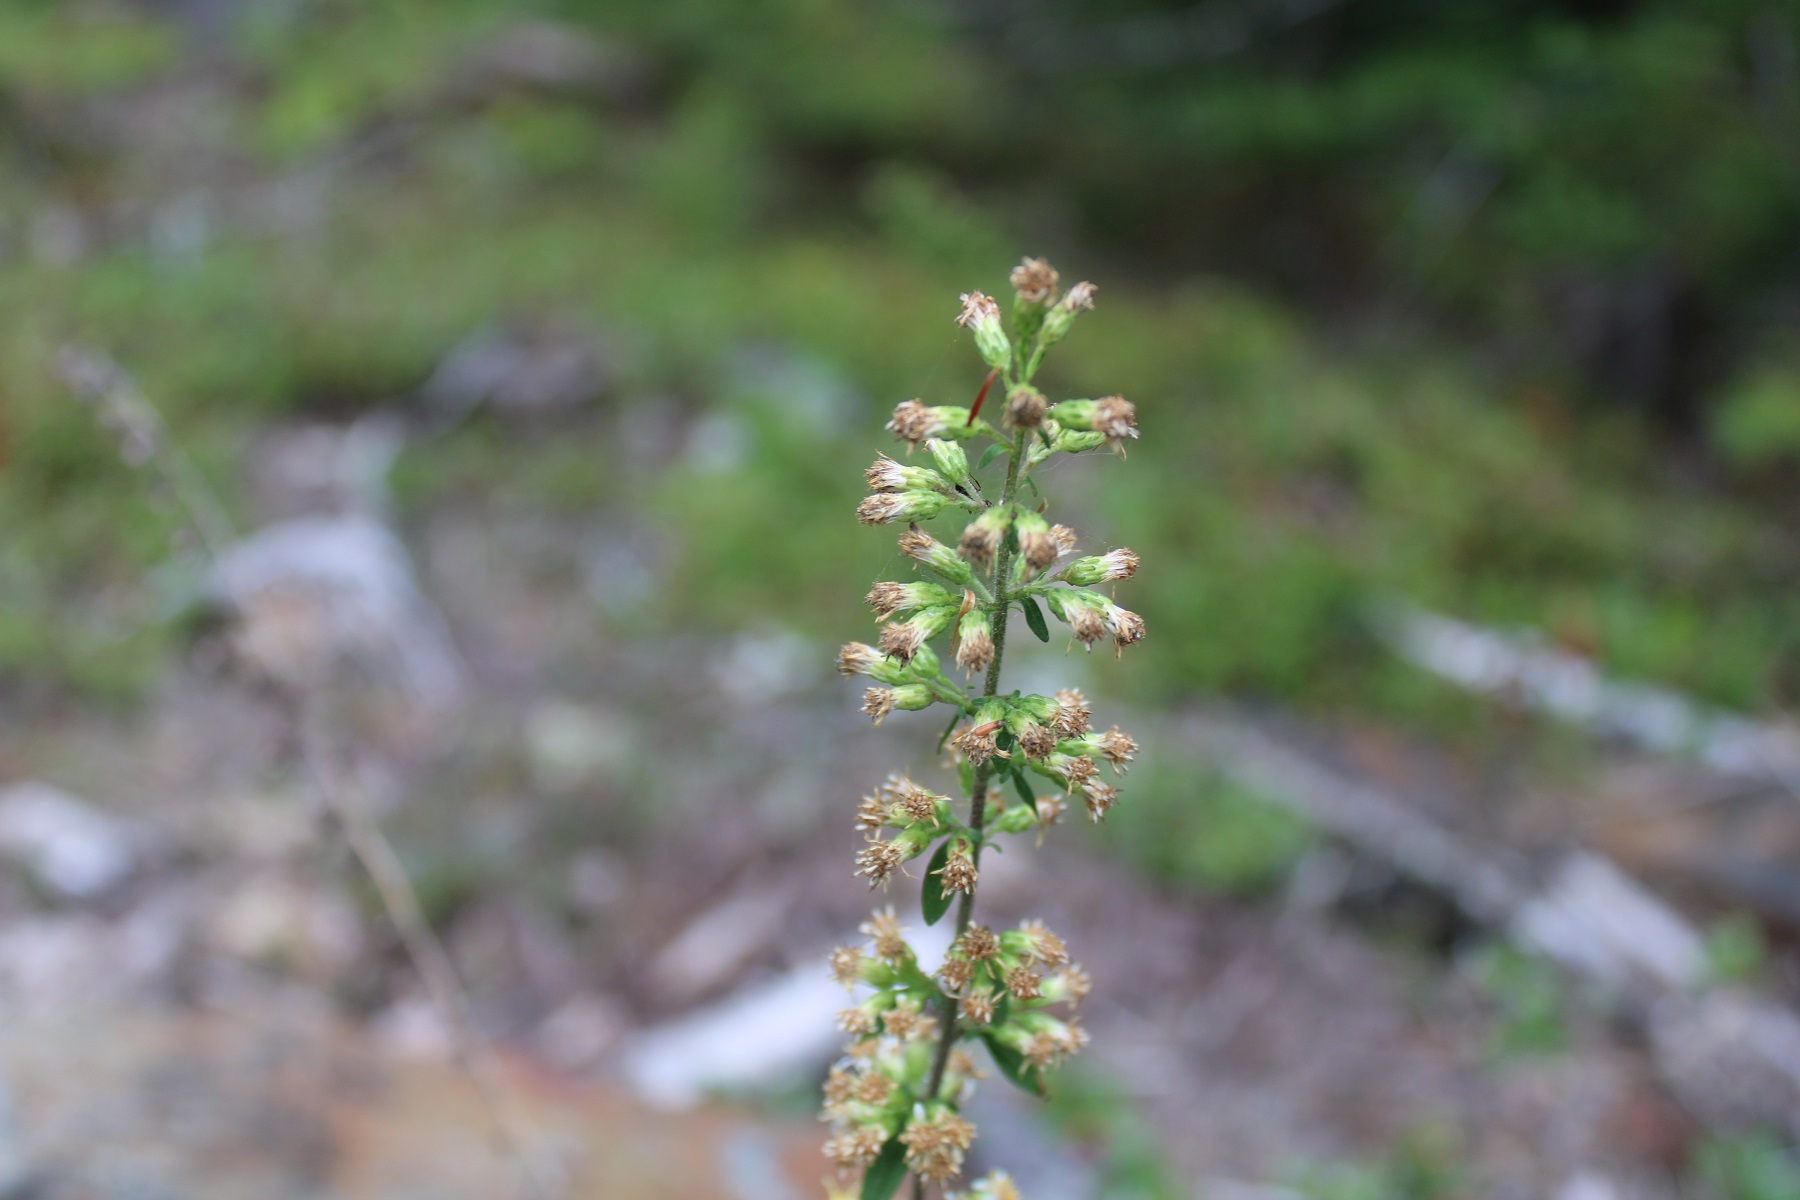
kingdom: Plantae
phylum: Tracheophyta
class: Magnoliopsida
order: Asterales
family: Asteraceae
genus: Solidago
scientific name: Solidago bicolor
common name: Silverrod
